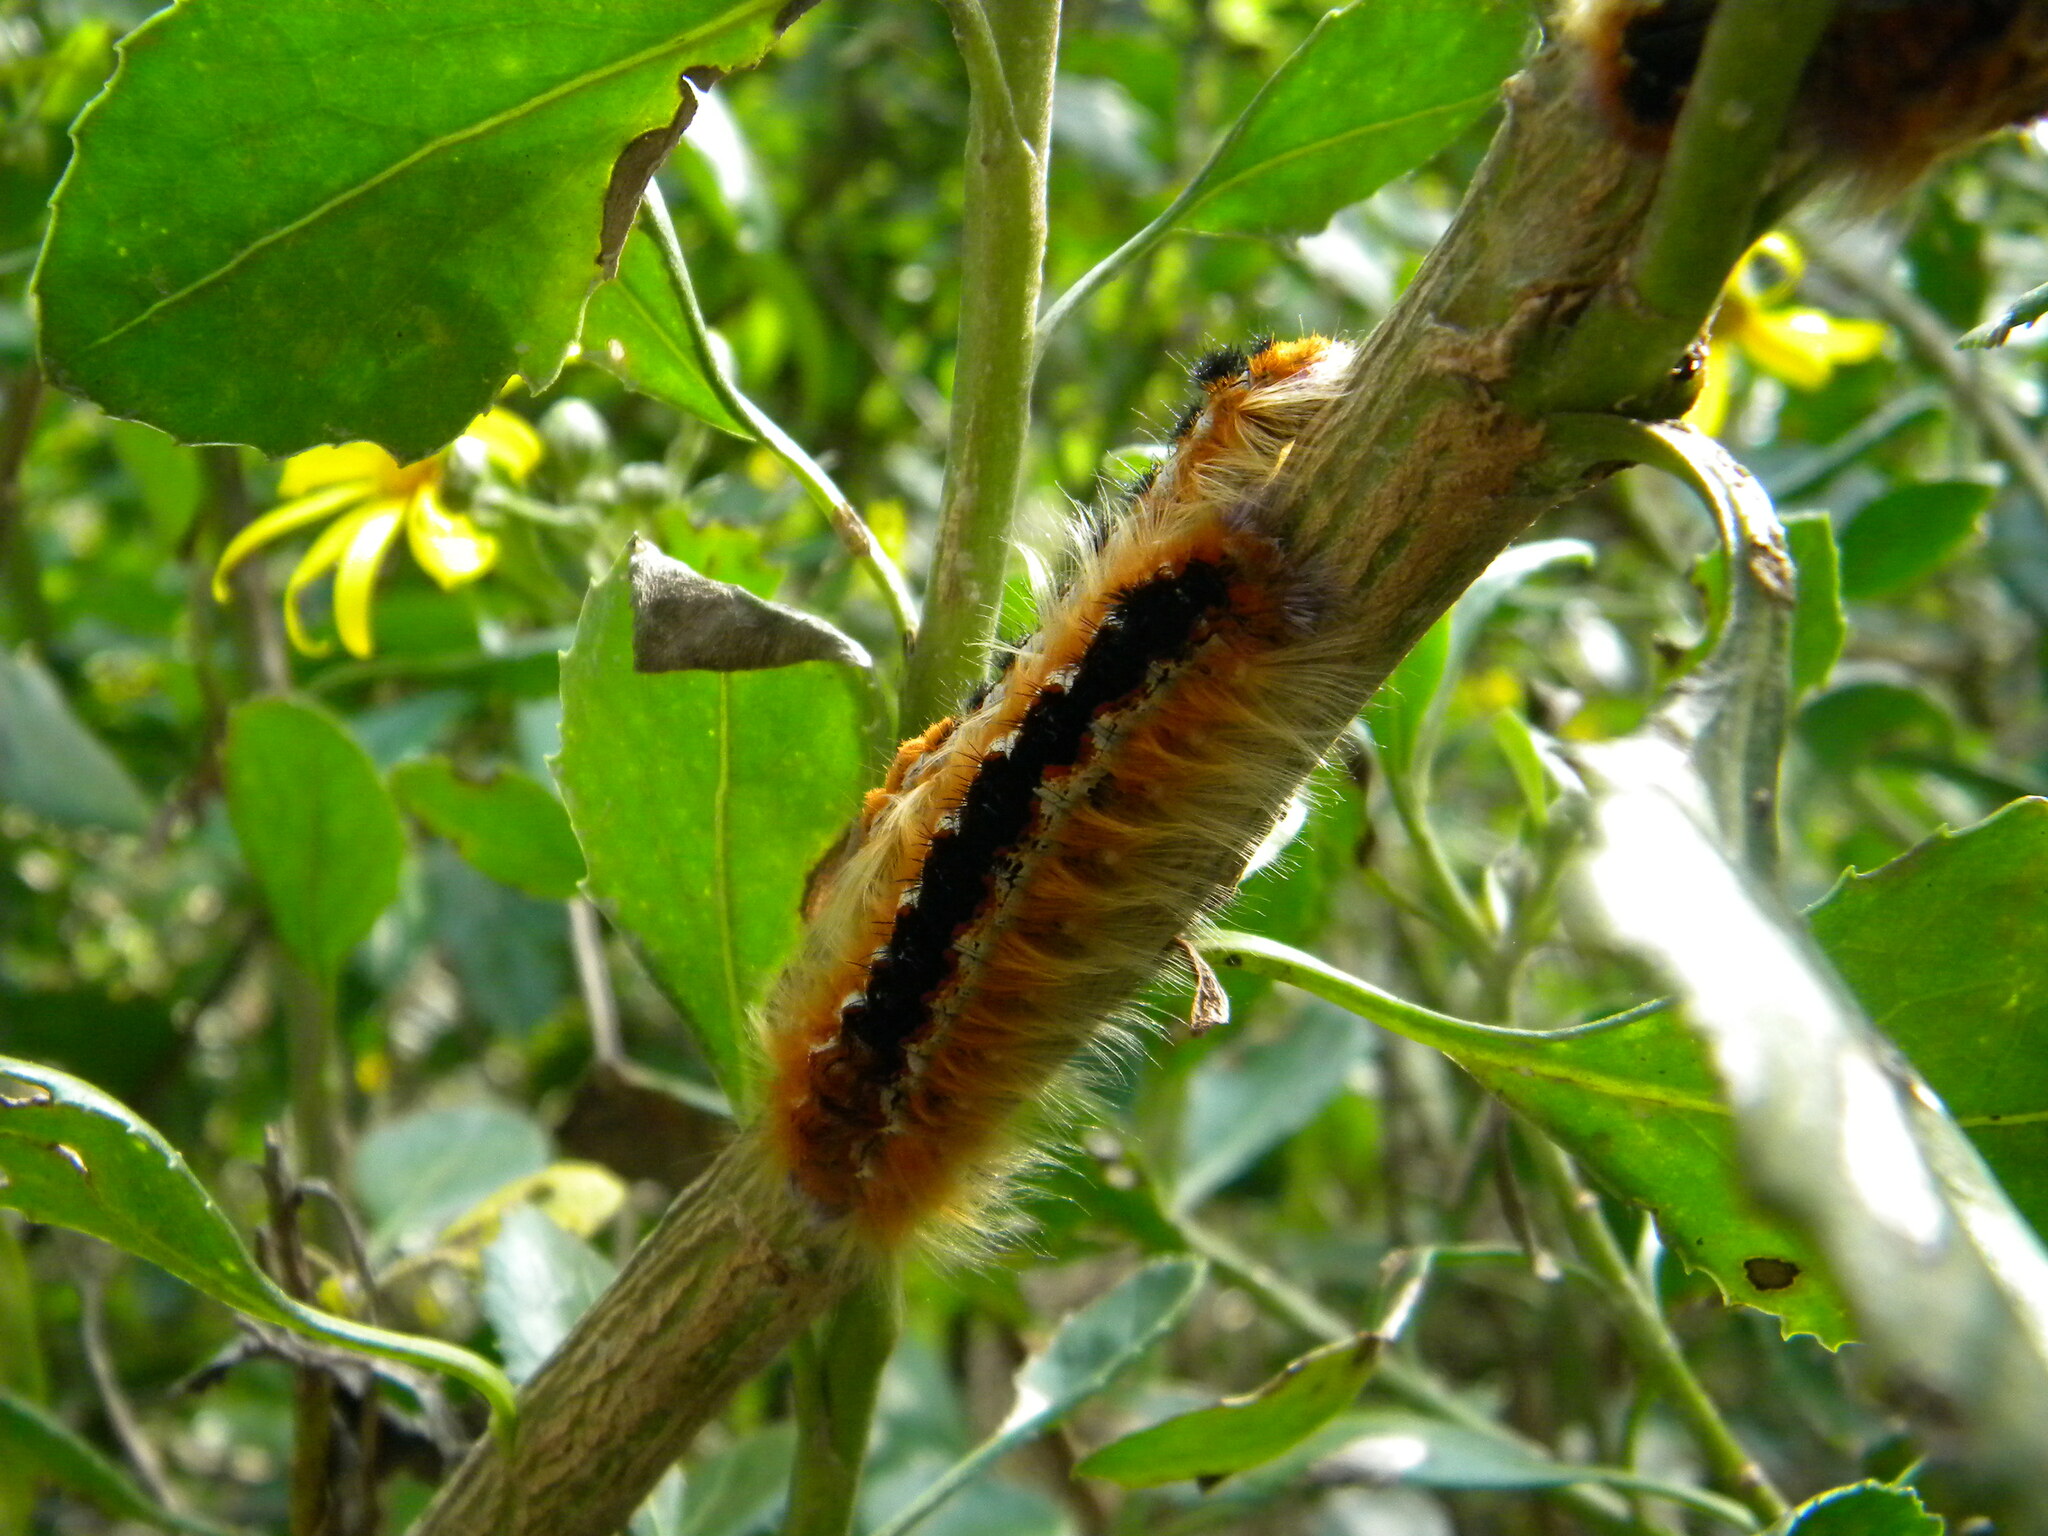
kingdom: Animalia
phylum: Arthropoda
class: Insecta
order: Lepidoptera
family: Lasiocampidae
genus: Eutricha
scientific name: Eutricha capensis
